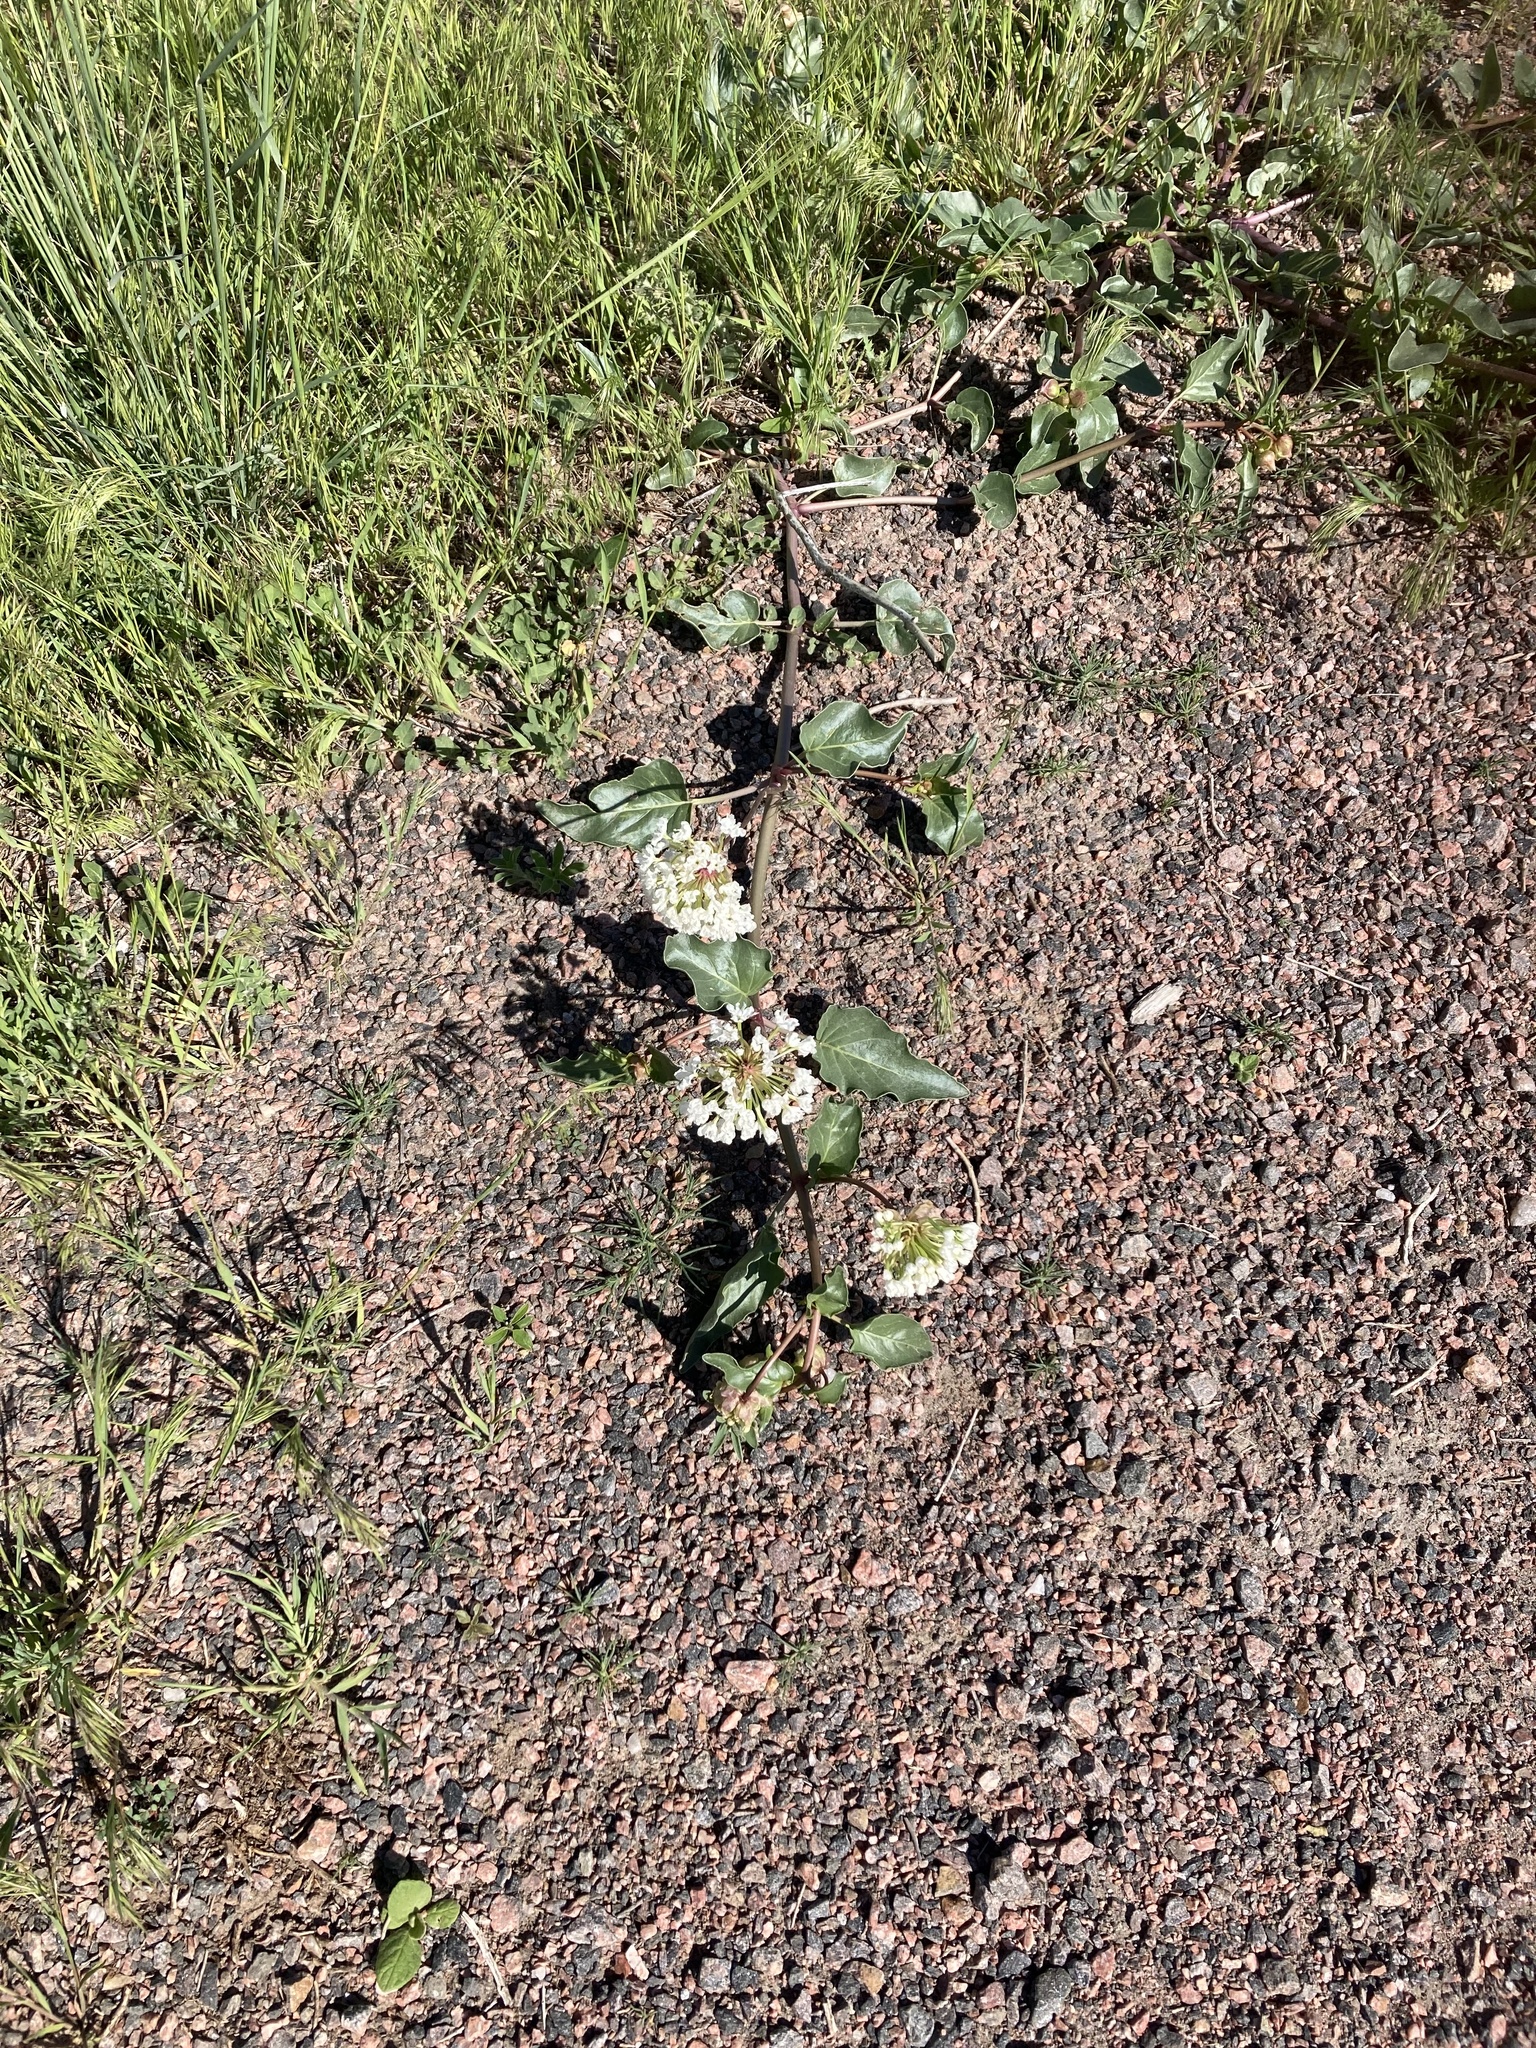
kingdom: Plantae
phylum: Tracheophyta
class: Magnoliopsida
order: Caryophyllales
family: Nyctaginaceae
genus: Abronia
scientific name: Abronia fragrans
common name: Fragrant sand-verbena
